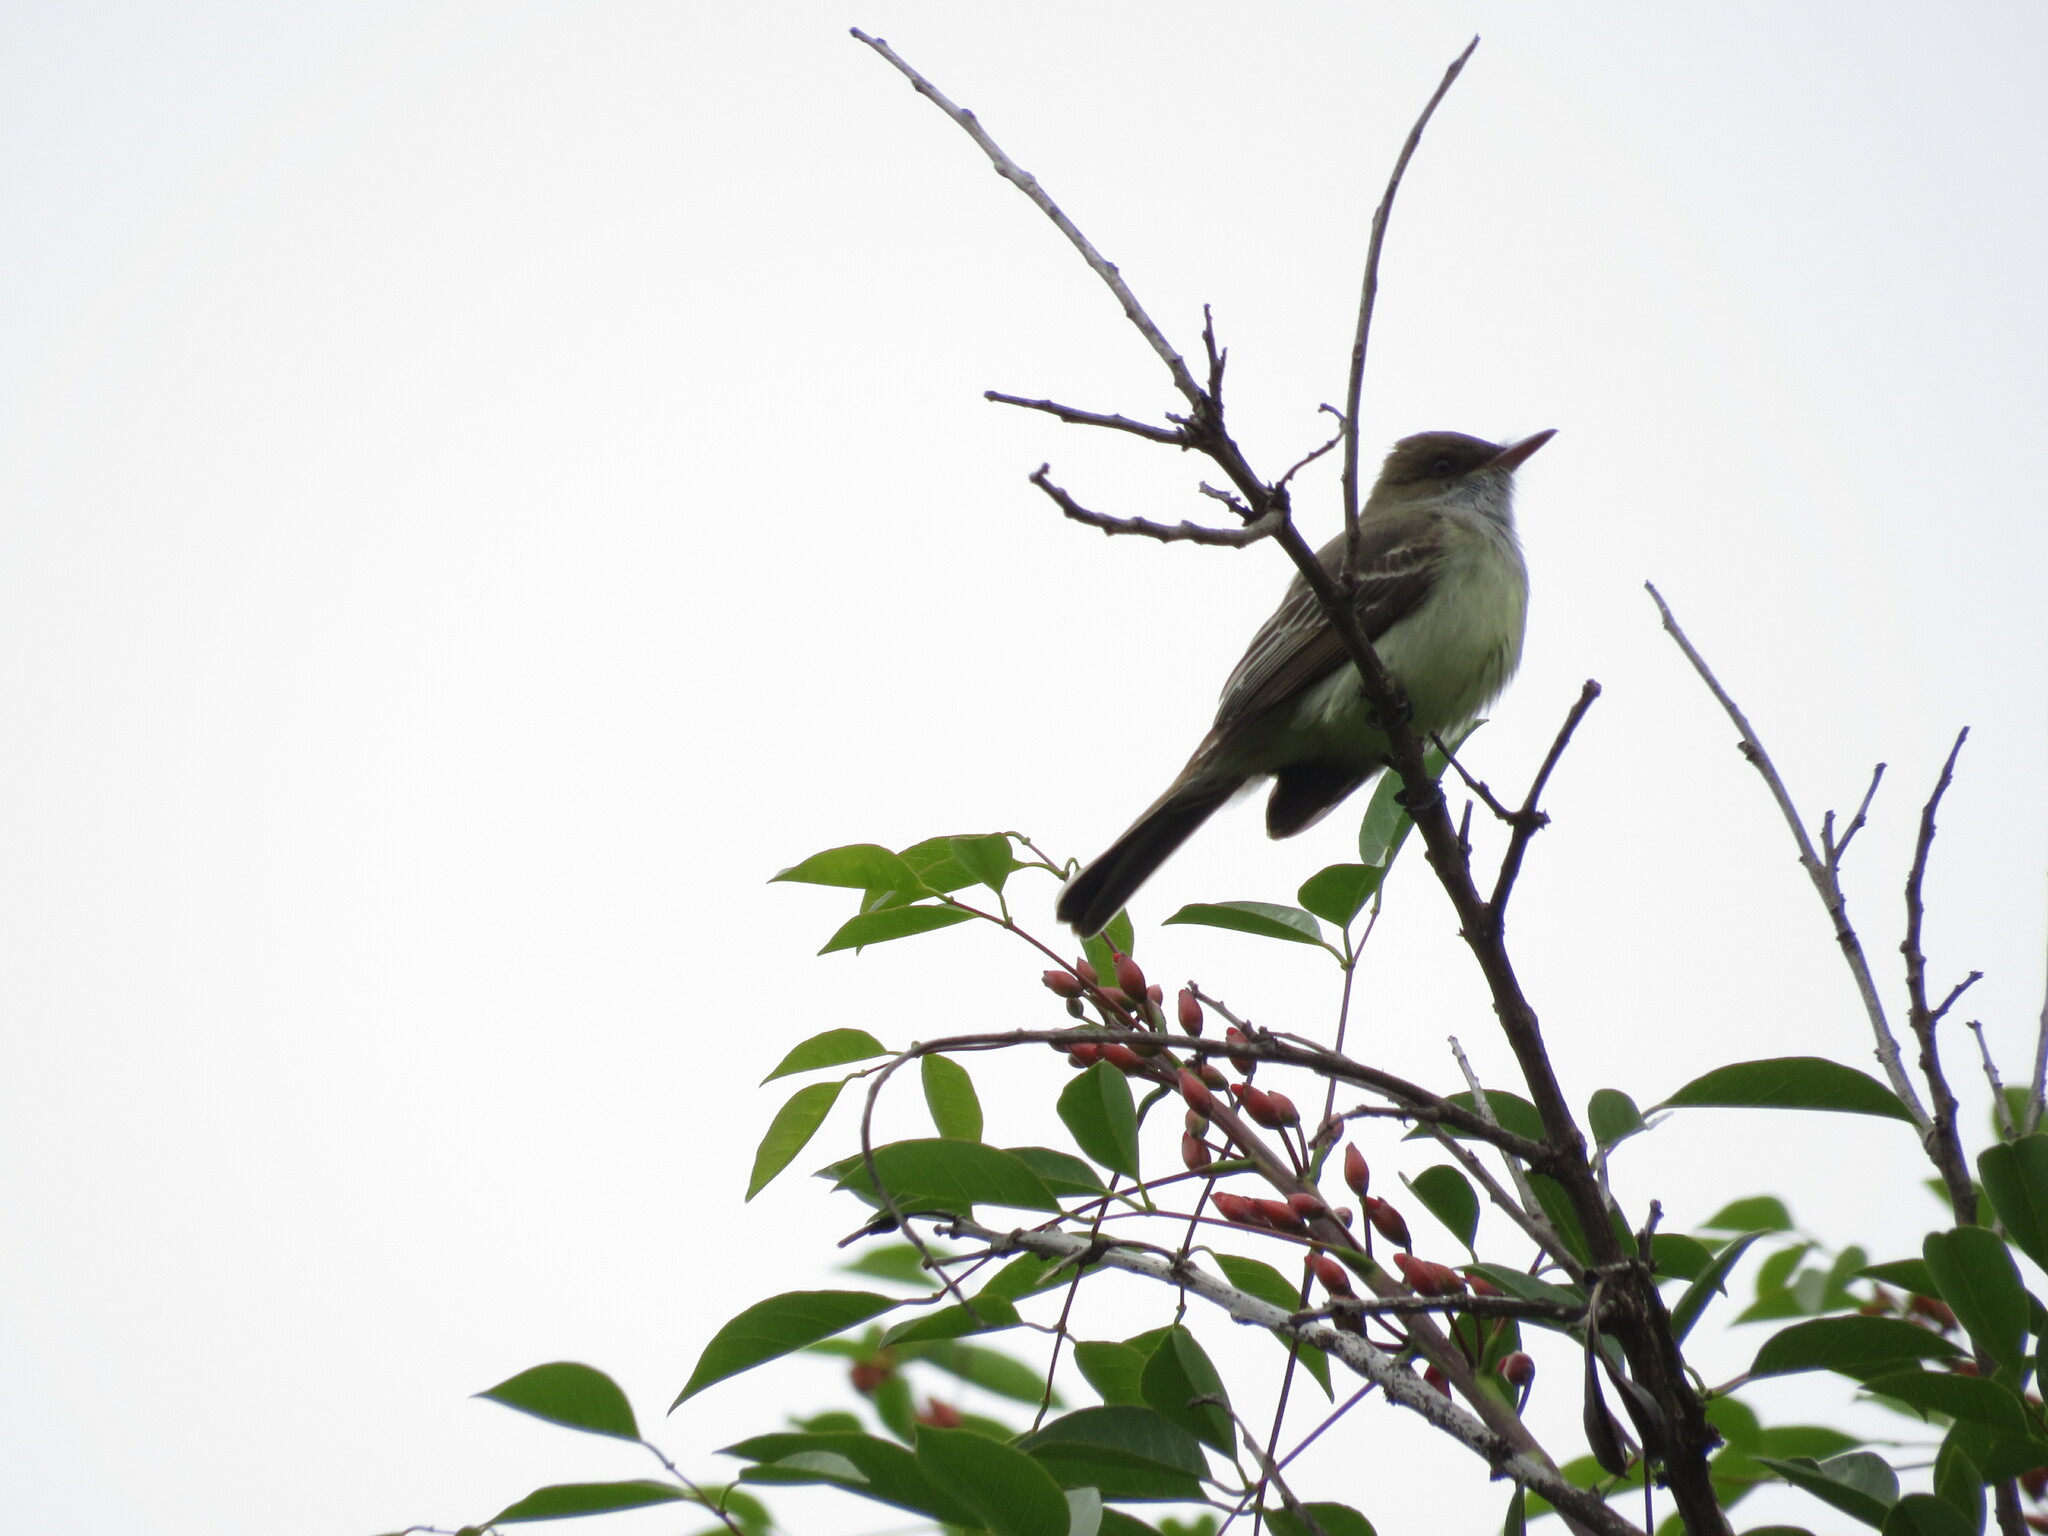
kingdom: Animalia
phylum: Chordata
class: Aves
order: Passeriformes
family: Tyrannidae
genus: Myiarchus
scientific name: Myiarchus swainsoni
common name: Swainson's flycatcher
